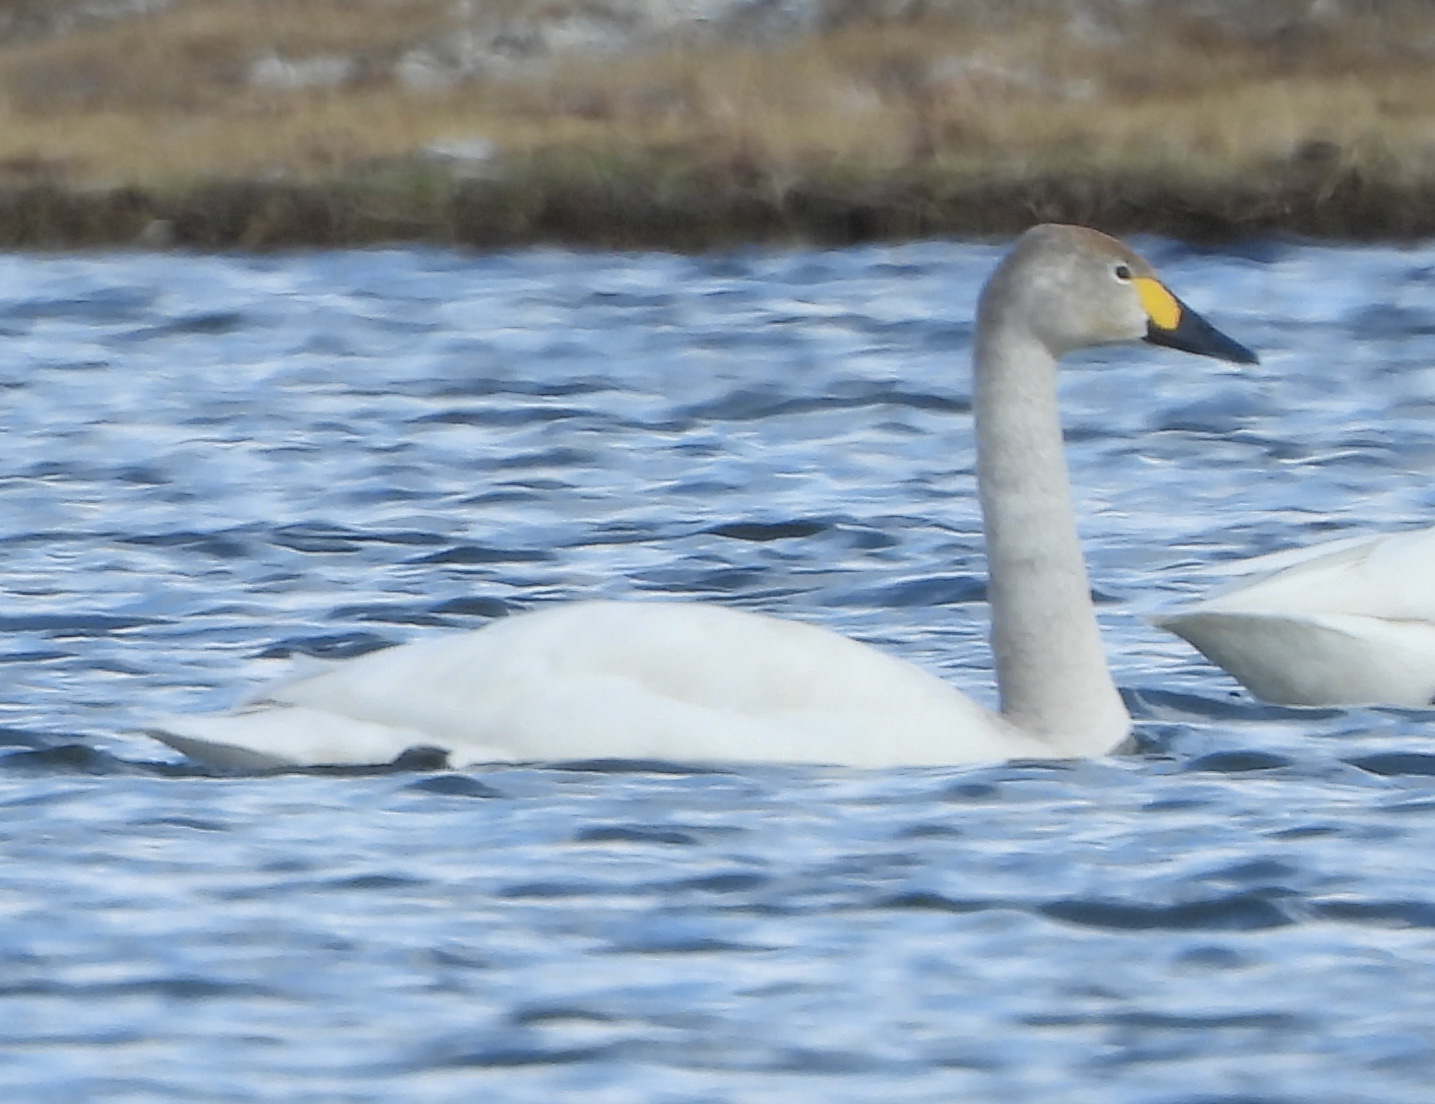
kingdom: Animalia
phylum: Chordata
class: Aves
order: Anseriformes
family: Anatidae
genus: Cygnus
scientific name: Cygnus columbianus
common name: Tundra swan
